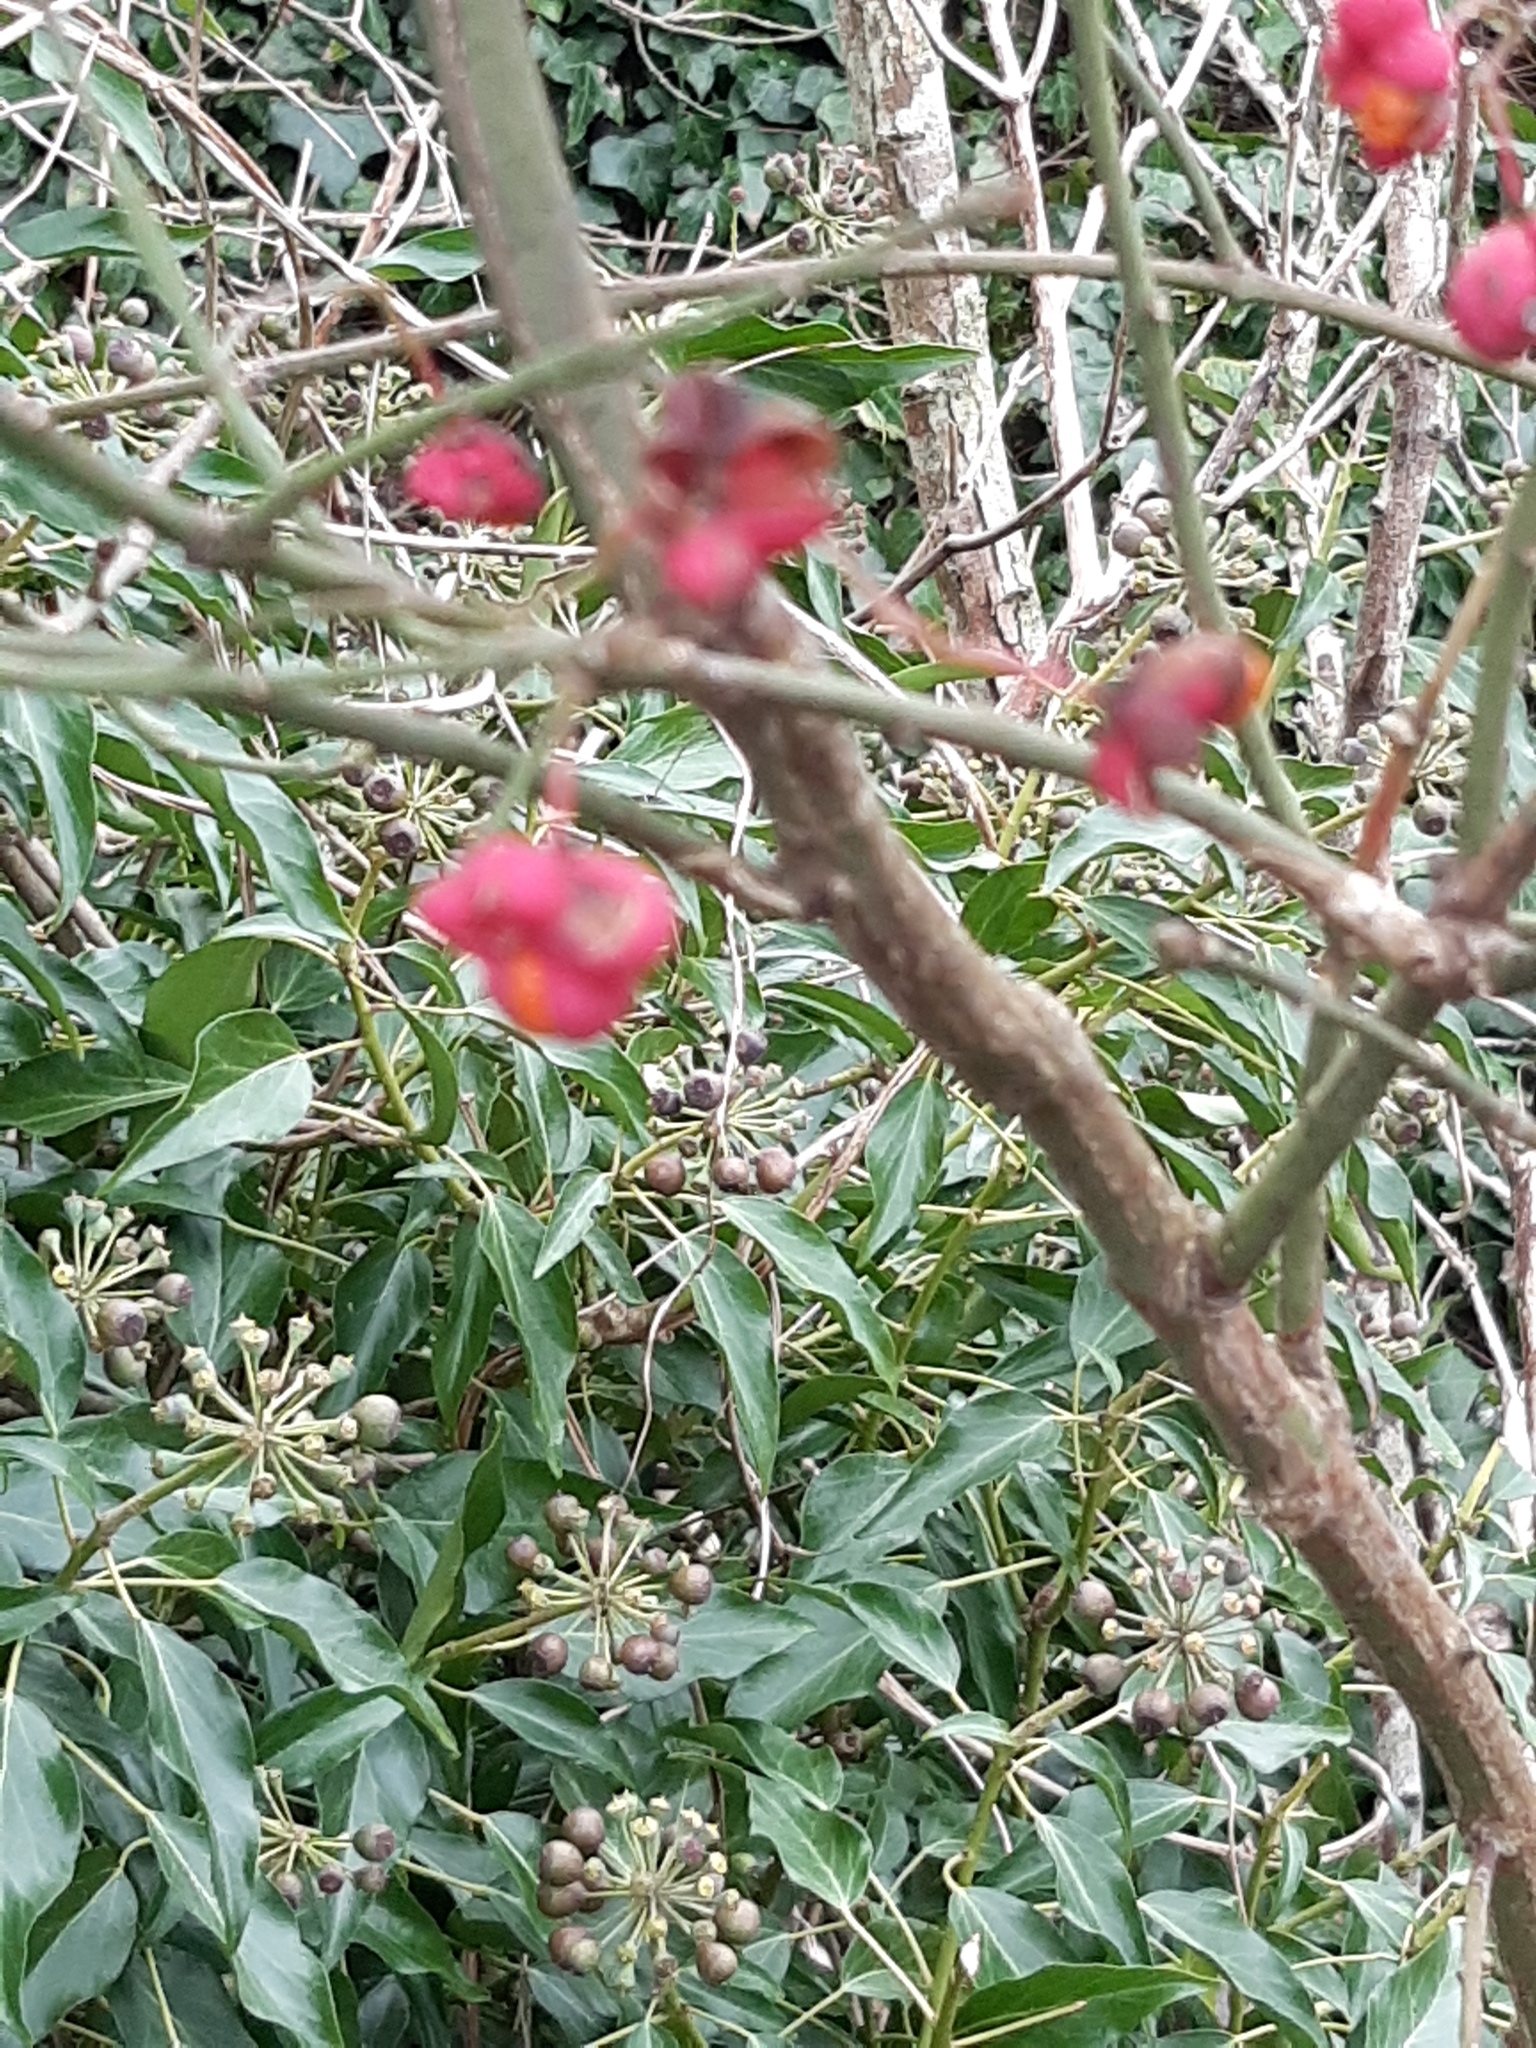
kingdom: Plantae
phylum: Tracheophyta
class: Magnoliopsida
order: Celastrales
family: Celastraceae
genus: Euonymus
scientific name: Euonymus europaeus
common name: Spindle
